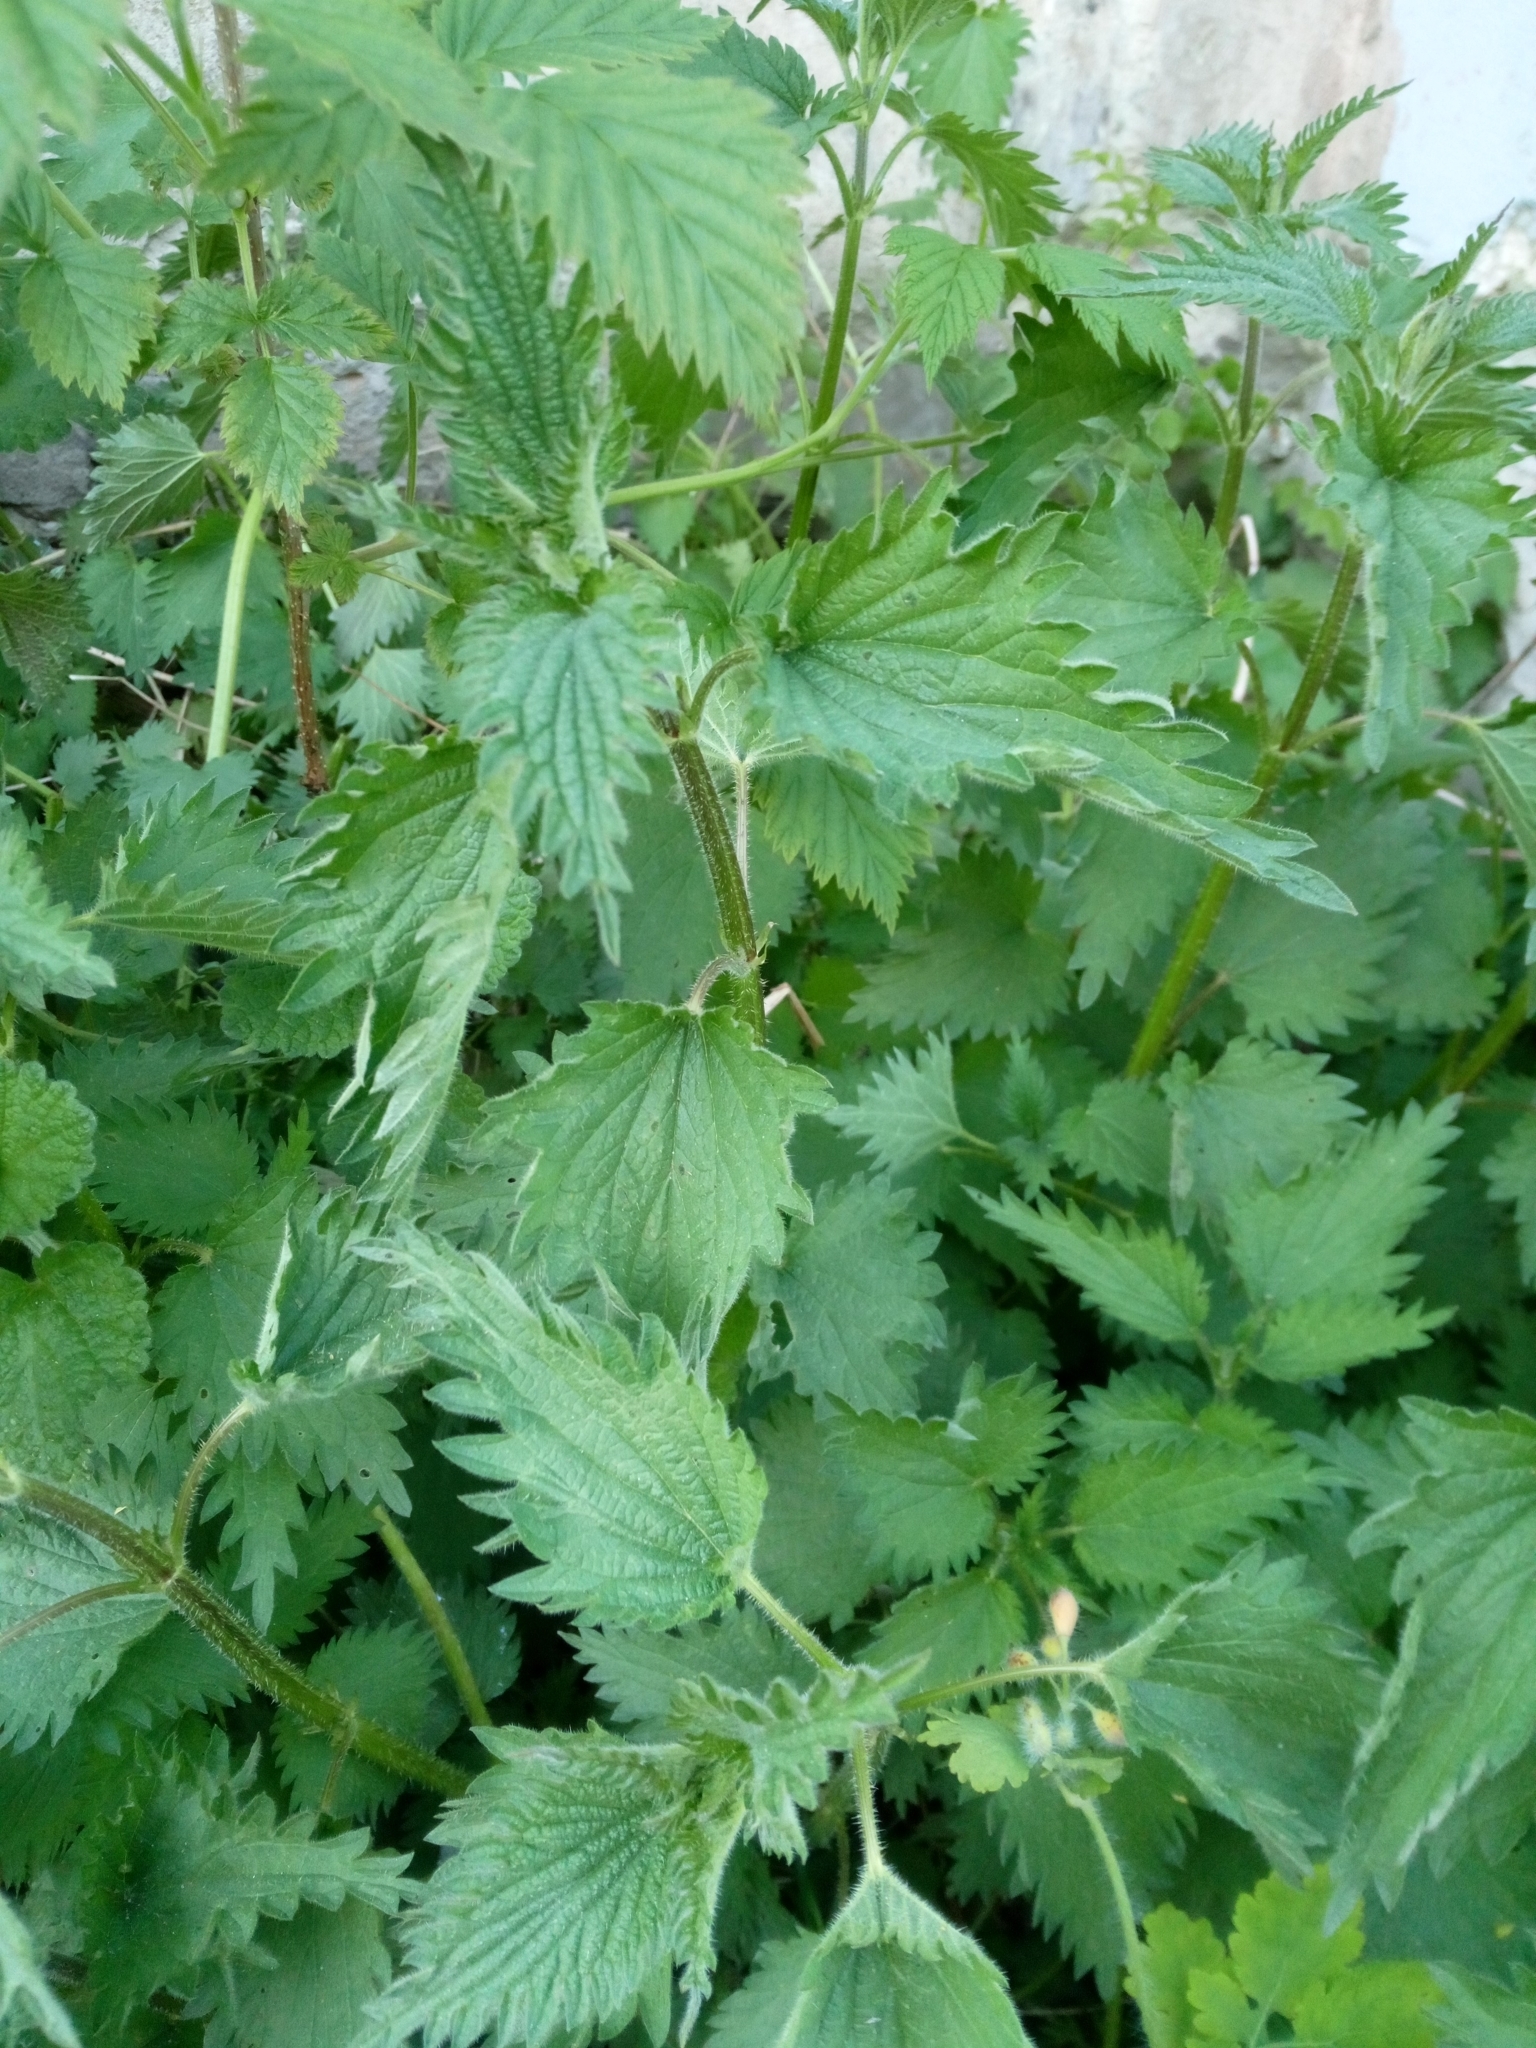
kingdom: Plantae
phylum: Tracheophyta
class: Magnoliopsida
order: Rosales
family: Urticaceae
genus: Urtica
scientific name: Urtica dioica
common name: Common nettle
